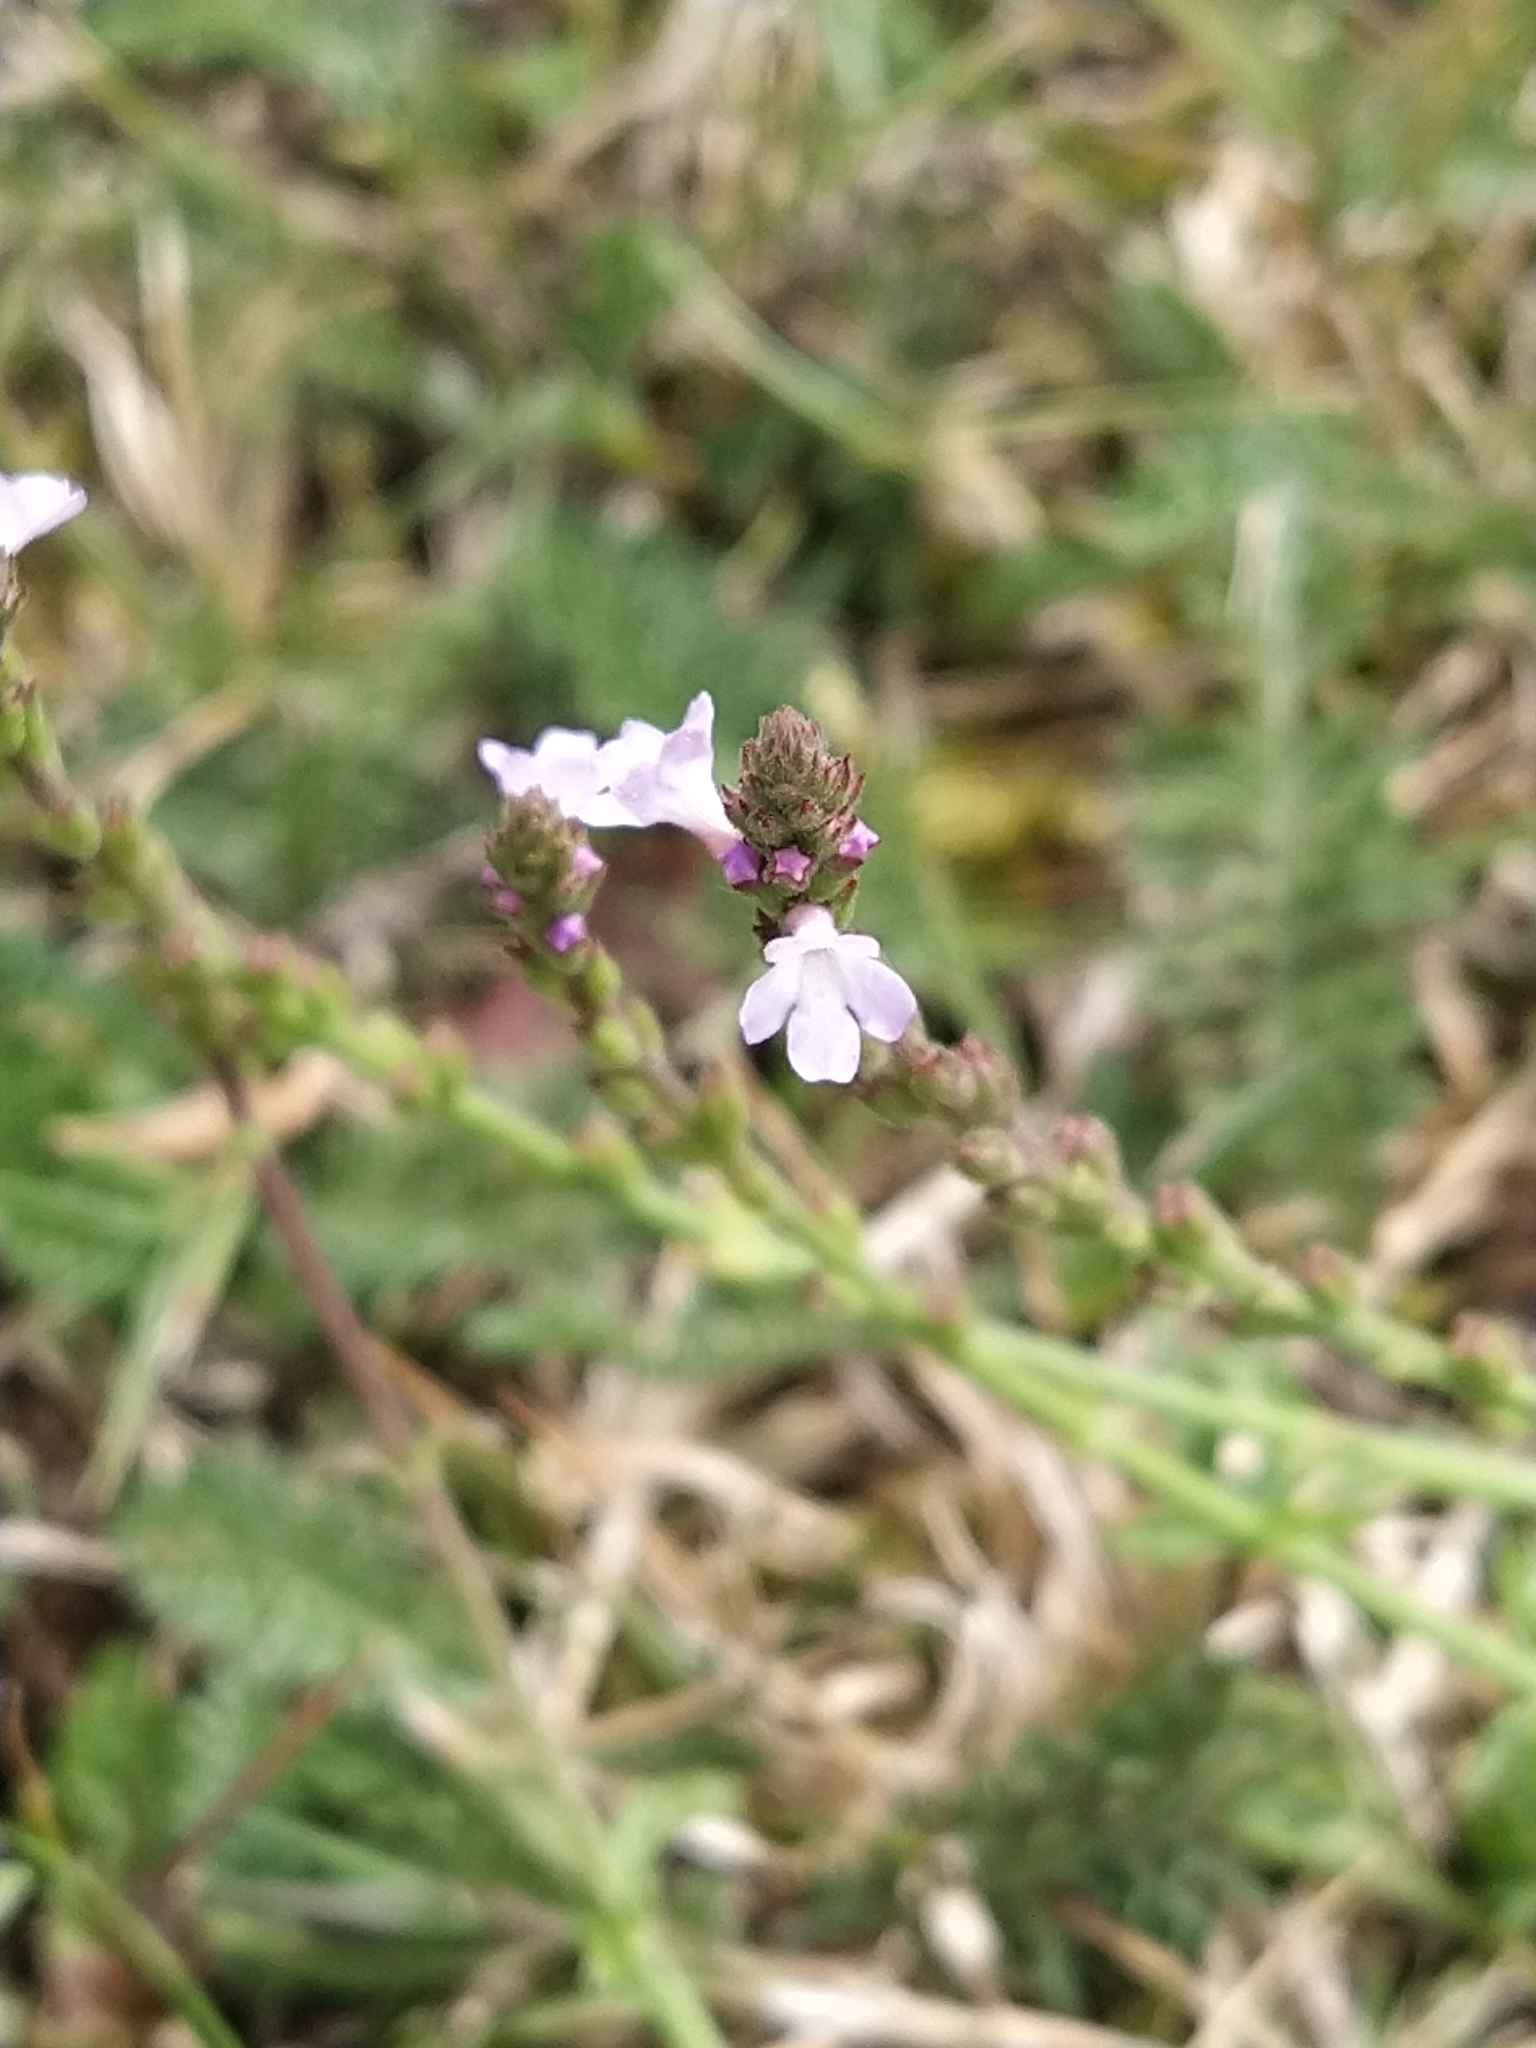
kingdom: Plantae
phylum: Tracheophyta
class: Magnoliopsida
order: Lamiales
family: Verbenaceae
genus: Verbena
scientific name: Verbena officinalis
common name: Vervain
